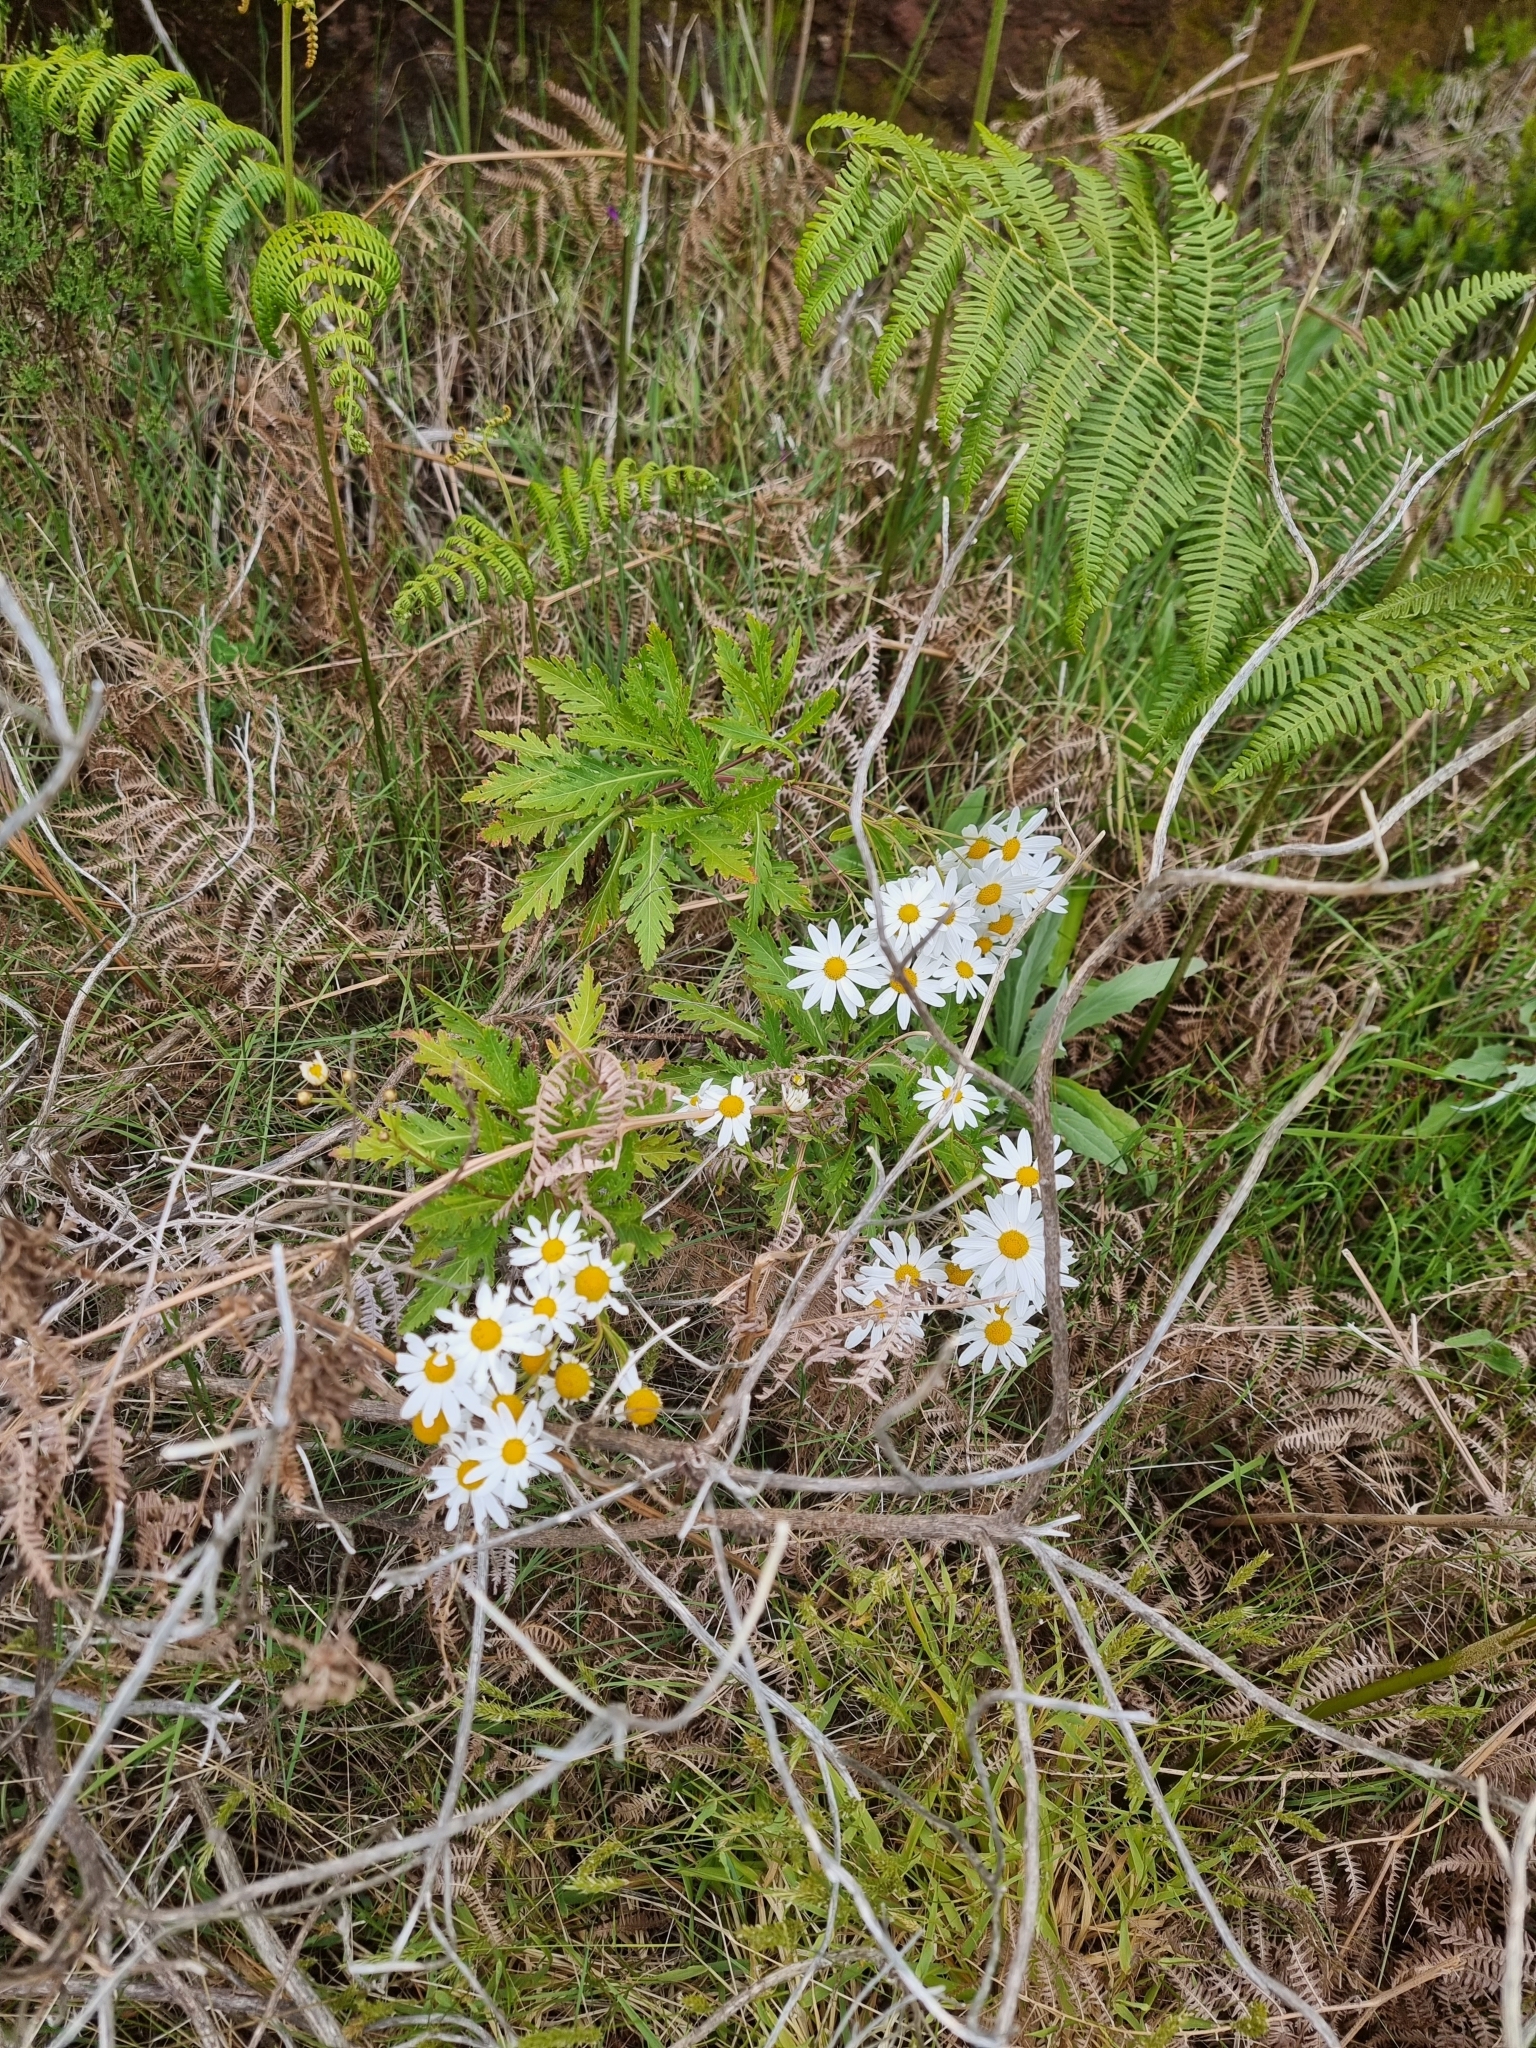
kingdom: Plantae
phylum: Tracheophyta
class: Magnoliopsida
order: Asterales
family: Asteraceae
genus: Argyranthemum
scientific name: Argyranthemum pinnatifidum
